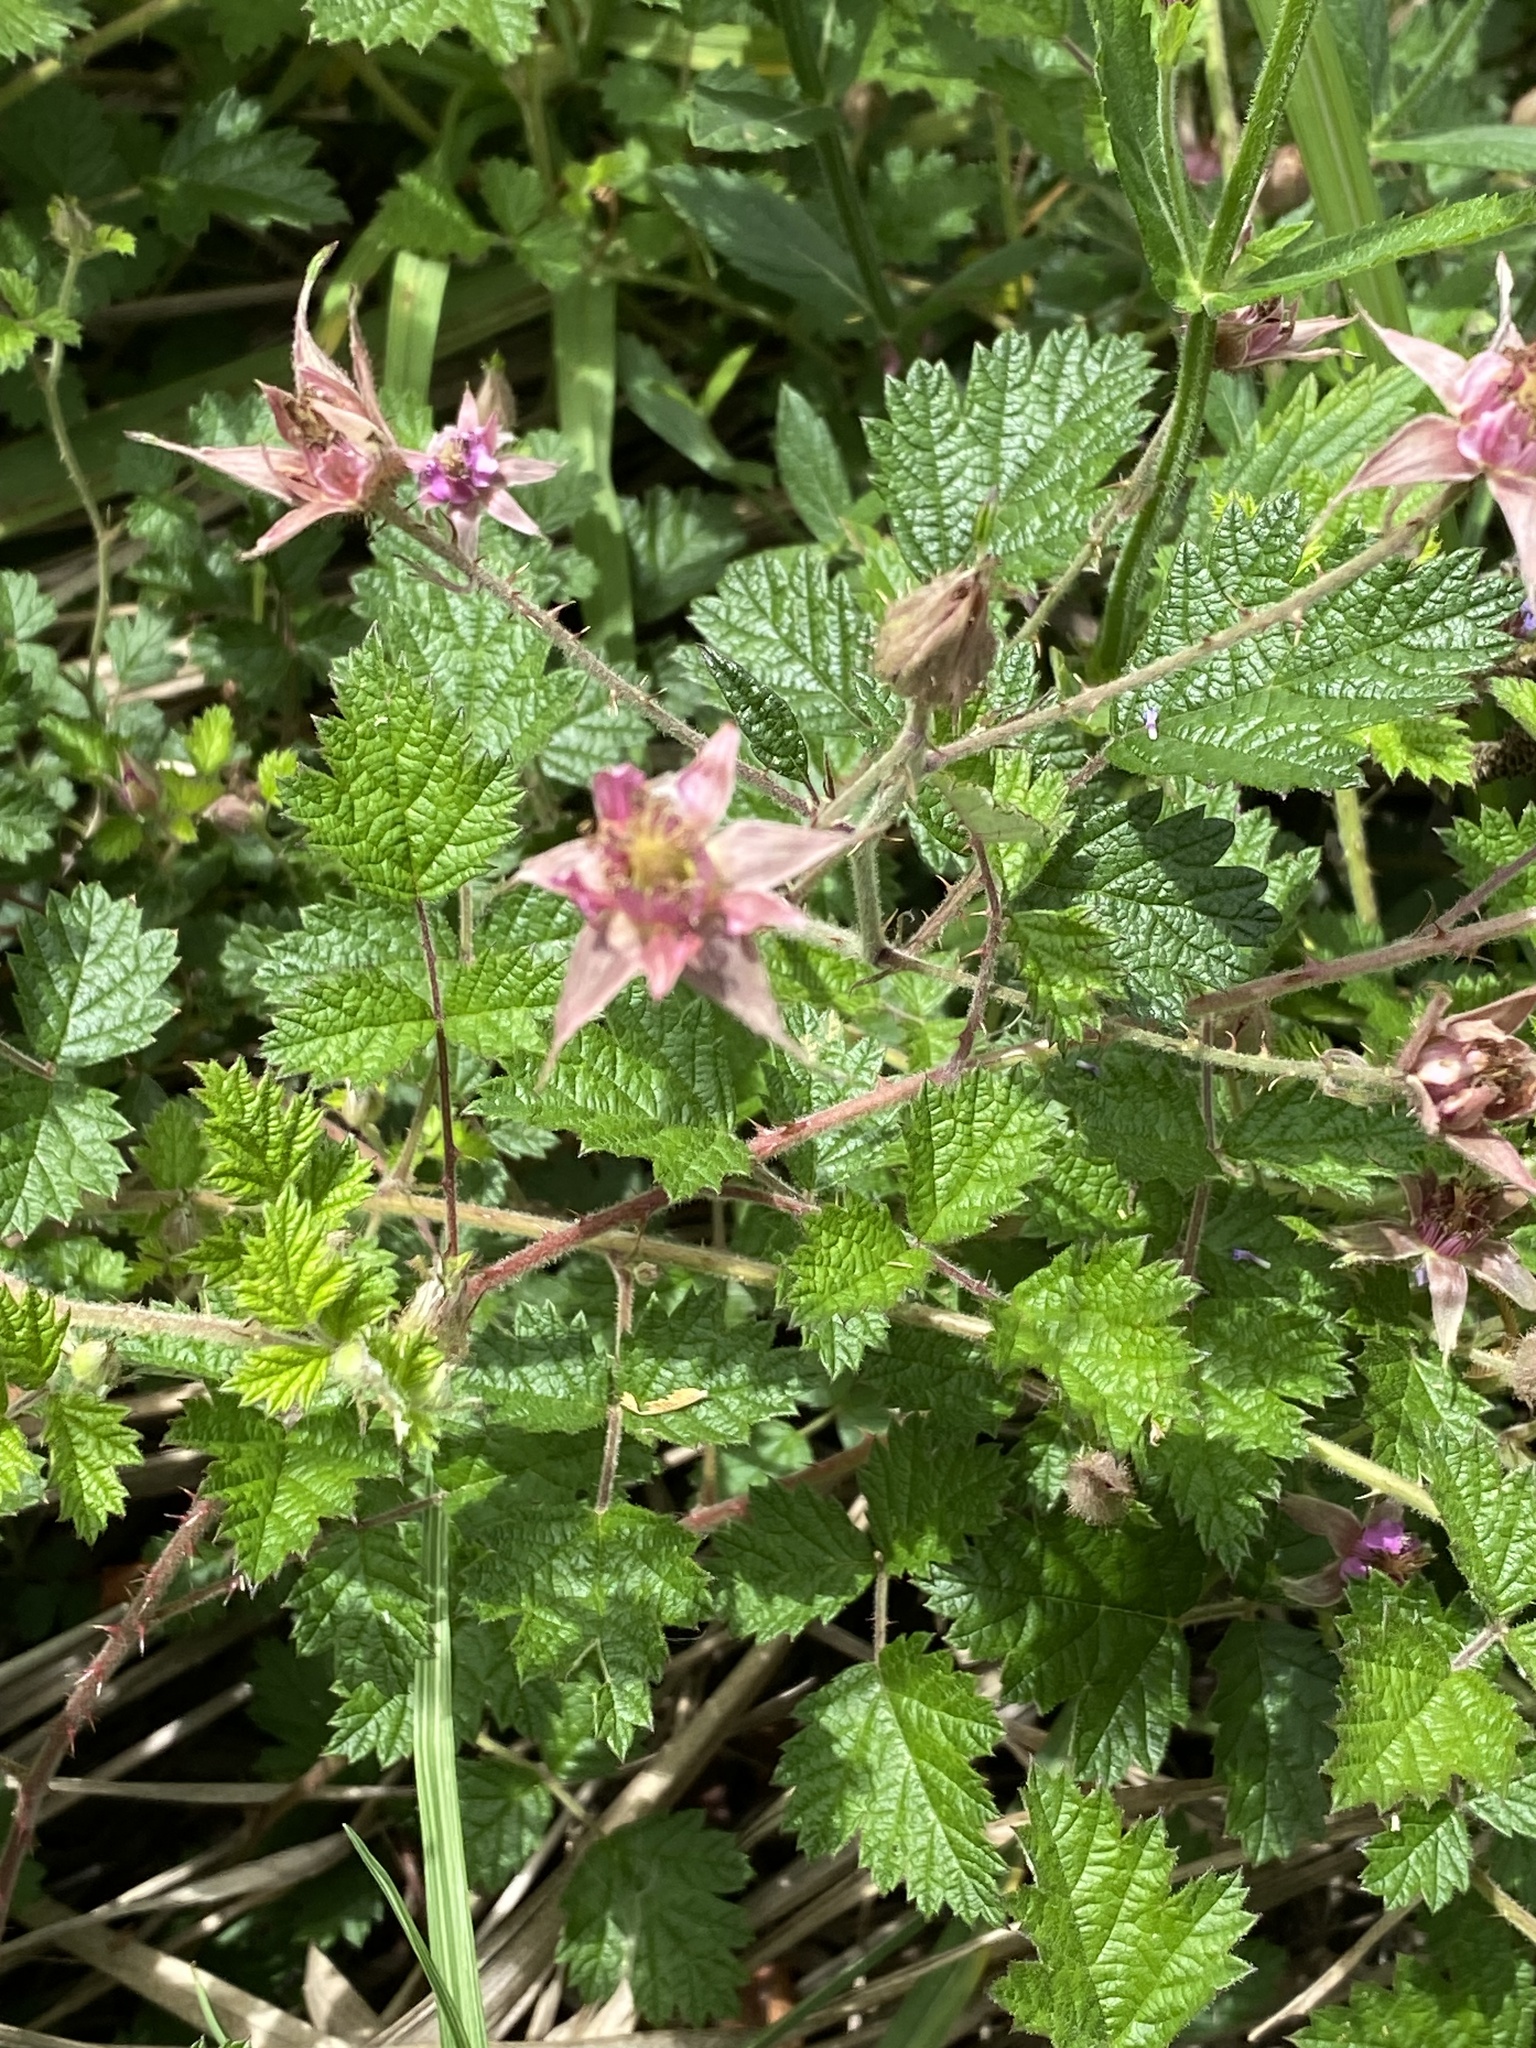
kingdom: Plantae
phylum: Tracheophyta
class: Magnoliopsida
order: Rosales
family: Rosaceae
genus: Rubus
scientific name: Rubus parvifolius
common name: Threeleaf blackberry
